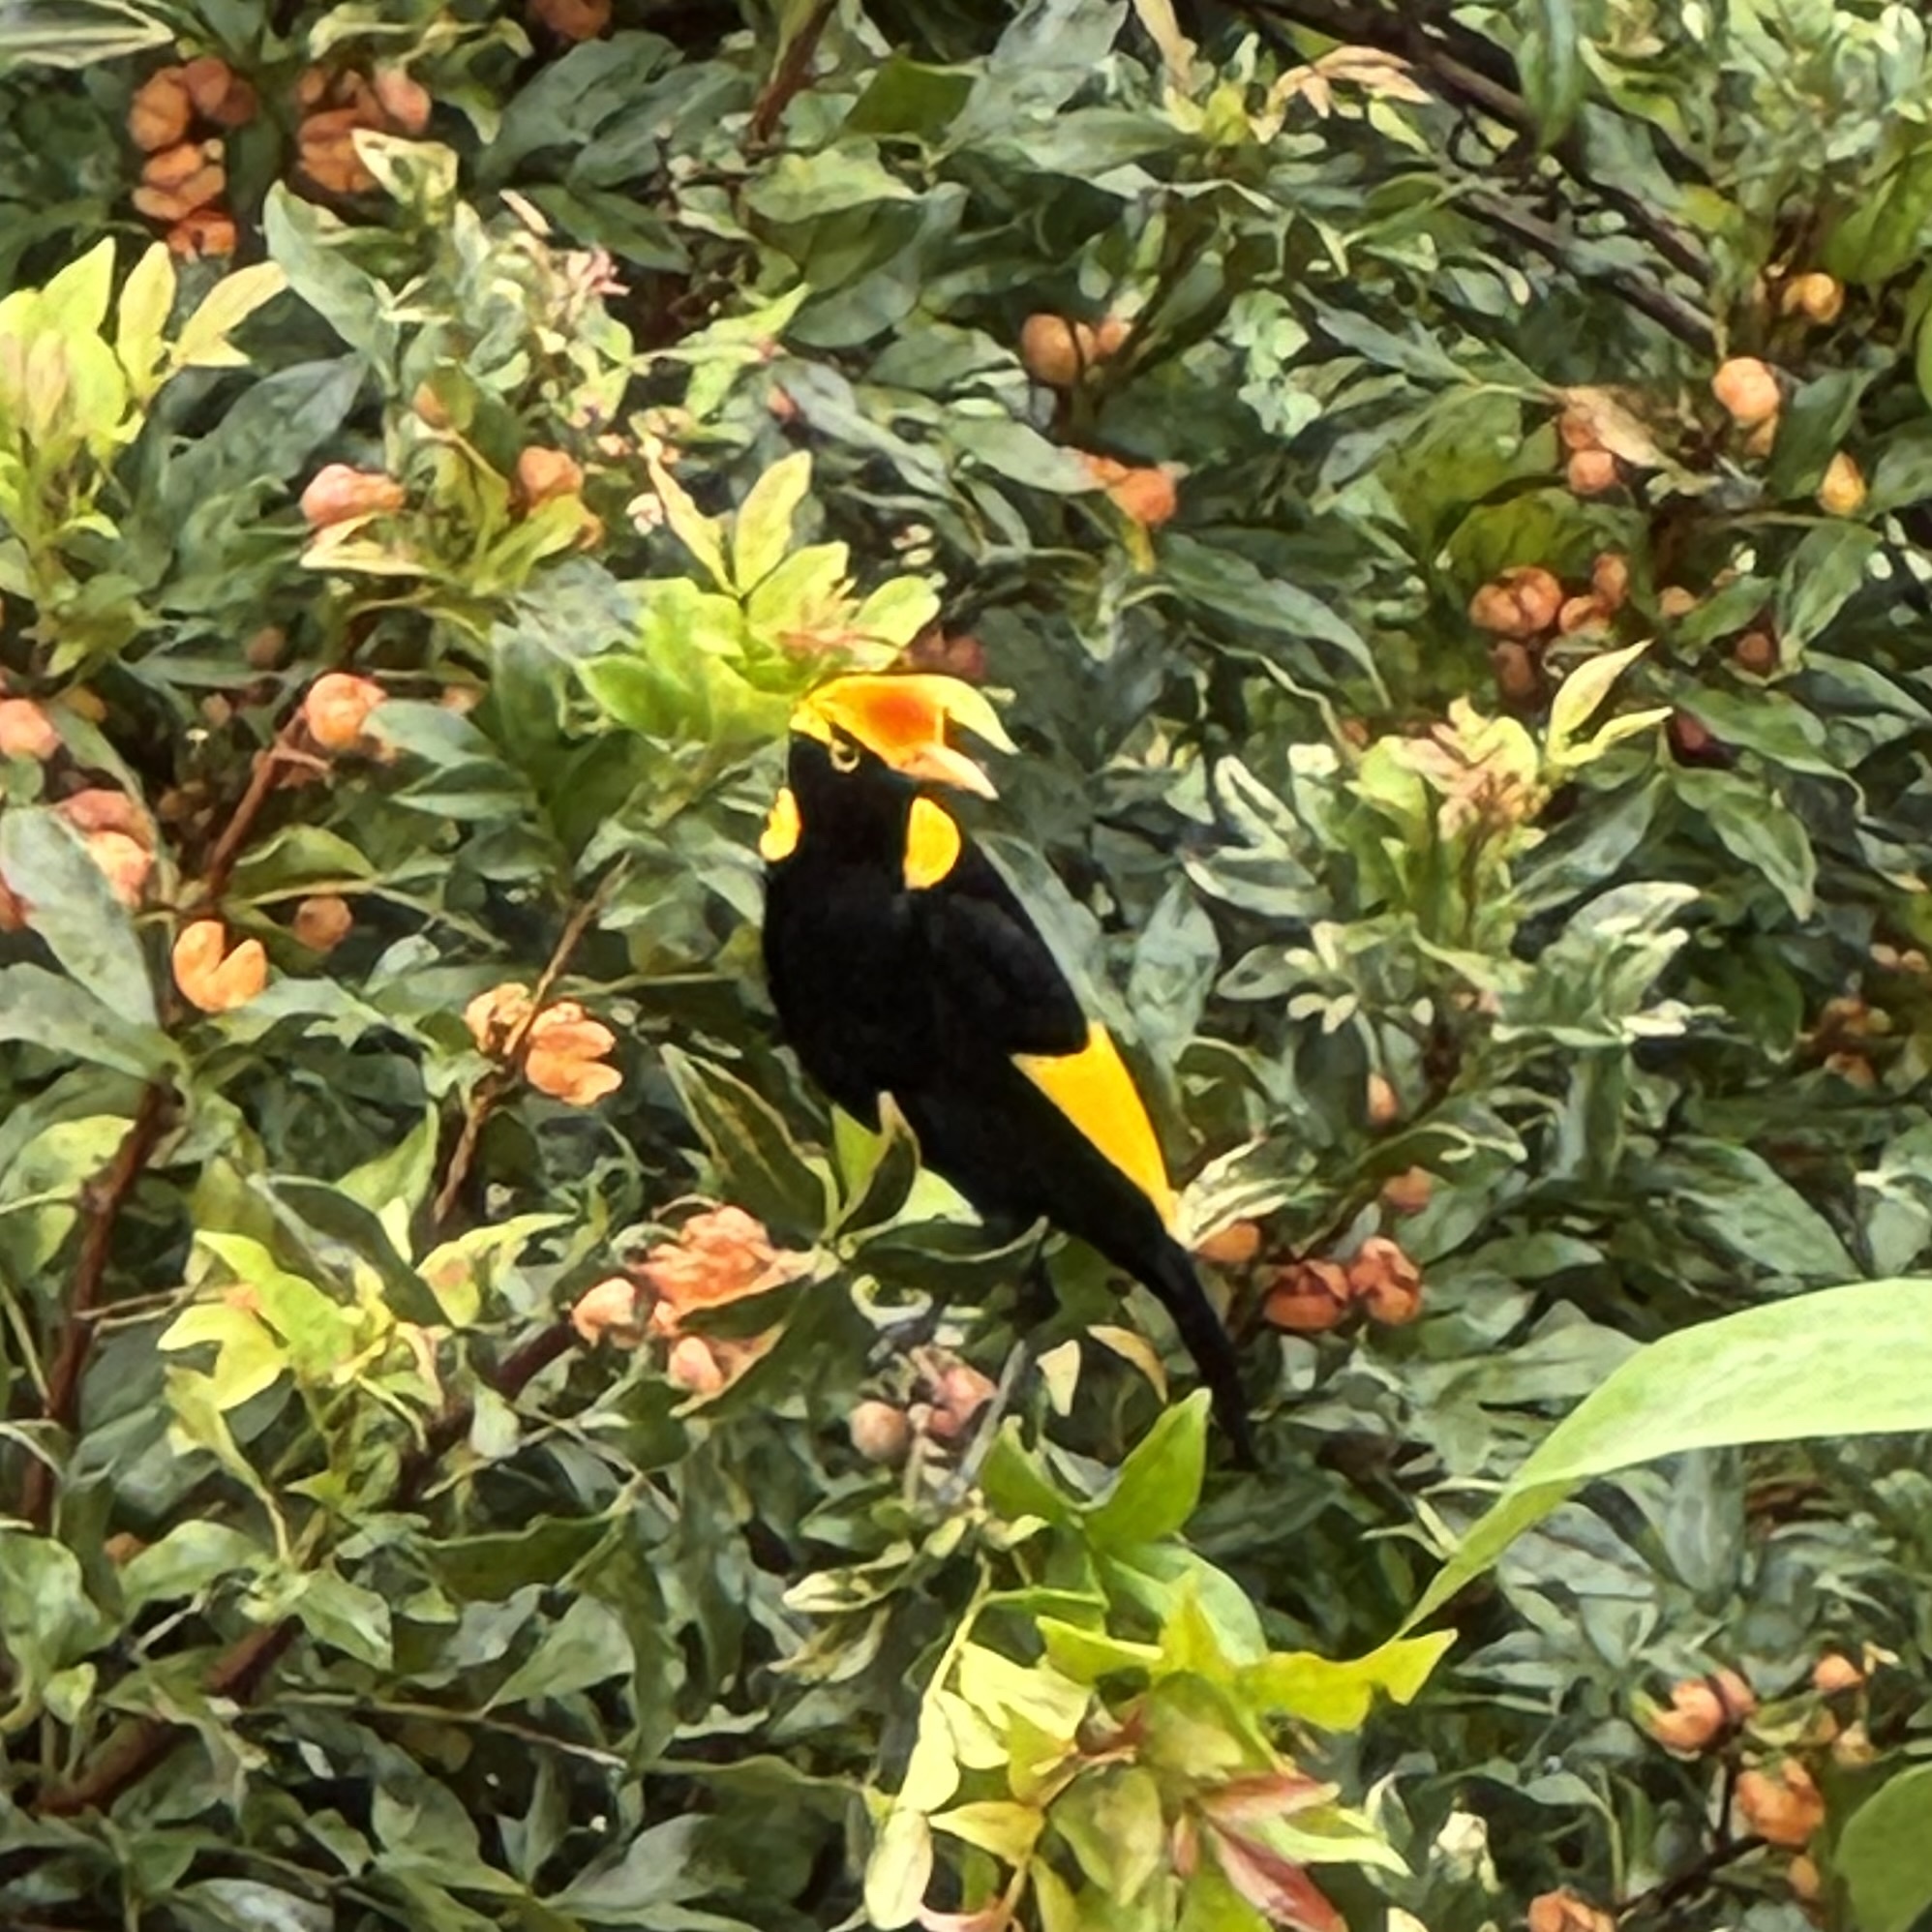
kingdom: Animalia
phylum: Chordata
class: Aves
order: Passeriformes
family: Ptilonorhynchidae
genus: Sericulus
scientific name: Sericulus chrysocephalus
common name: Regent bowerbird
